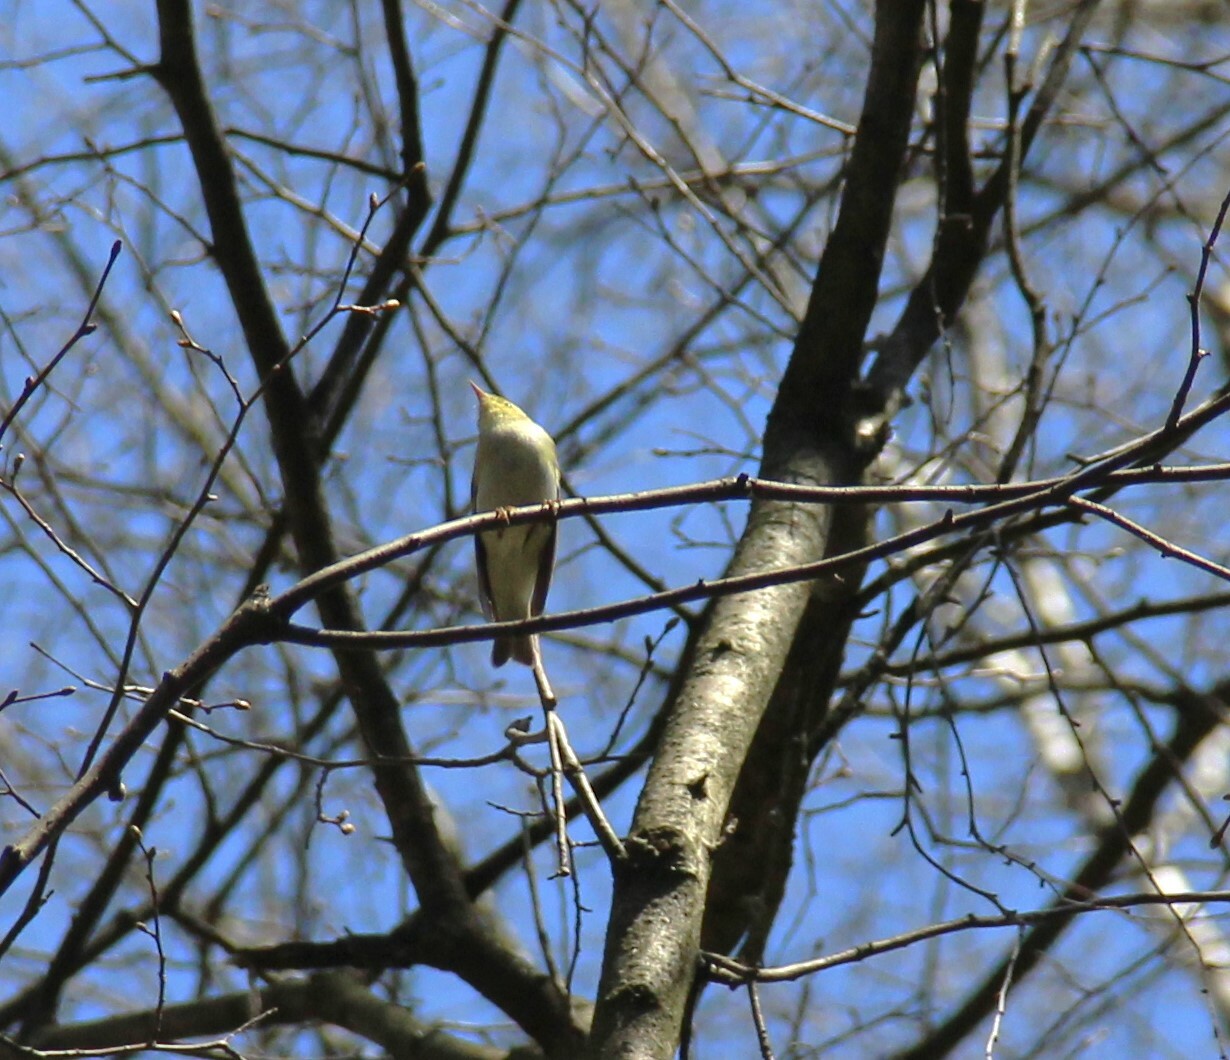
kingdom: Animalia
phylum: Chordata
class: Aves
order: Passeriformes
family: Phylloscopidae
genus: Phylloscopus
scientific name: Phylloscopus trochilus
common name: Willow warbler
